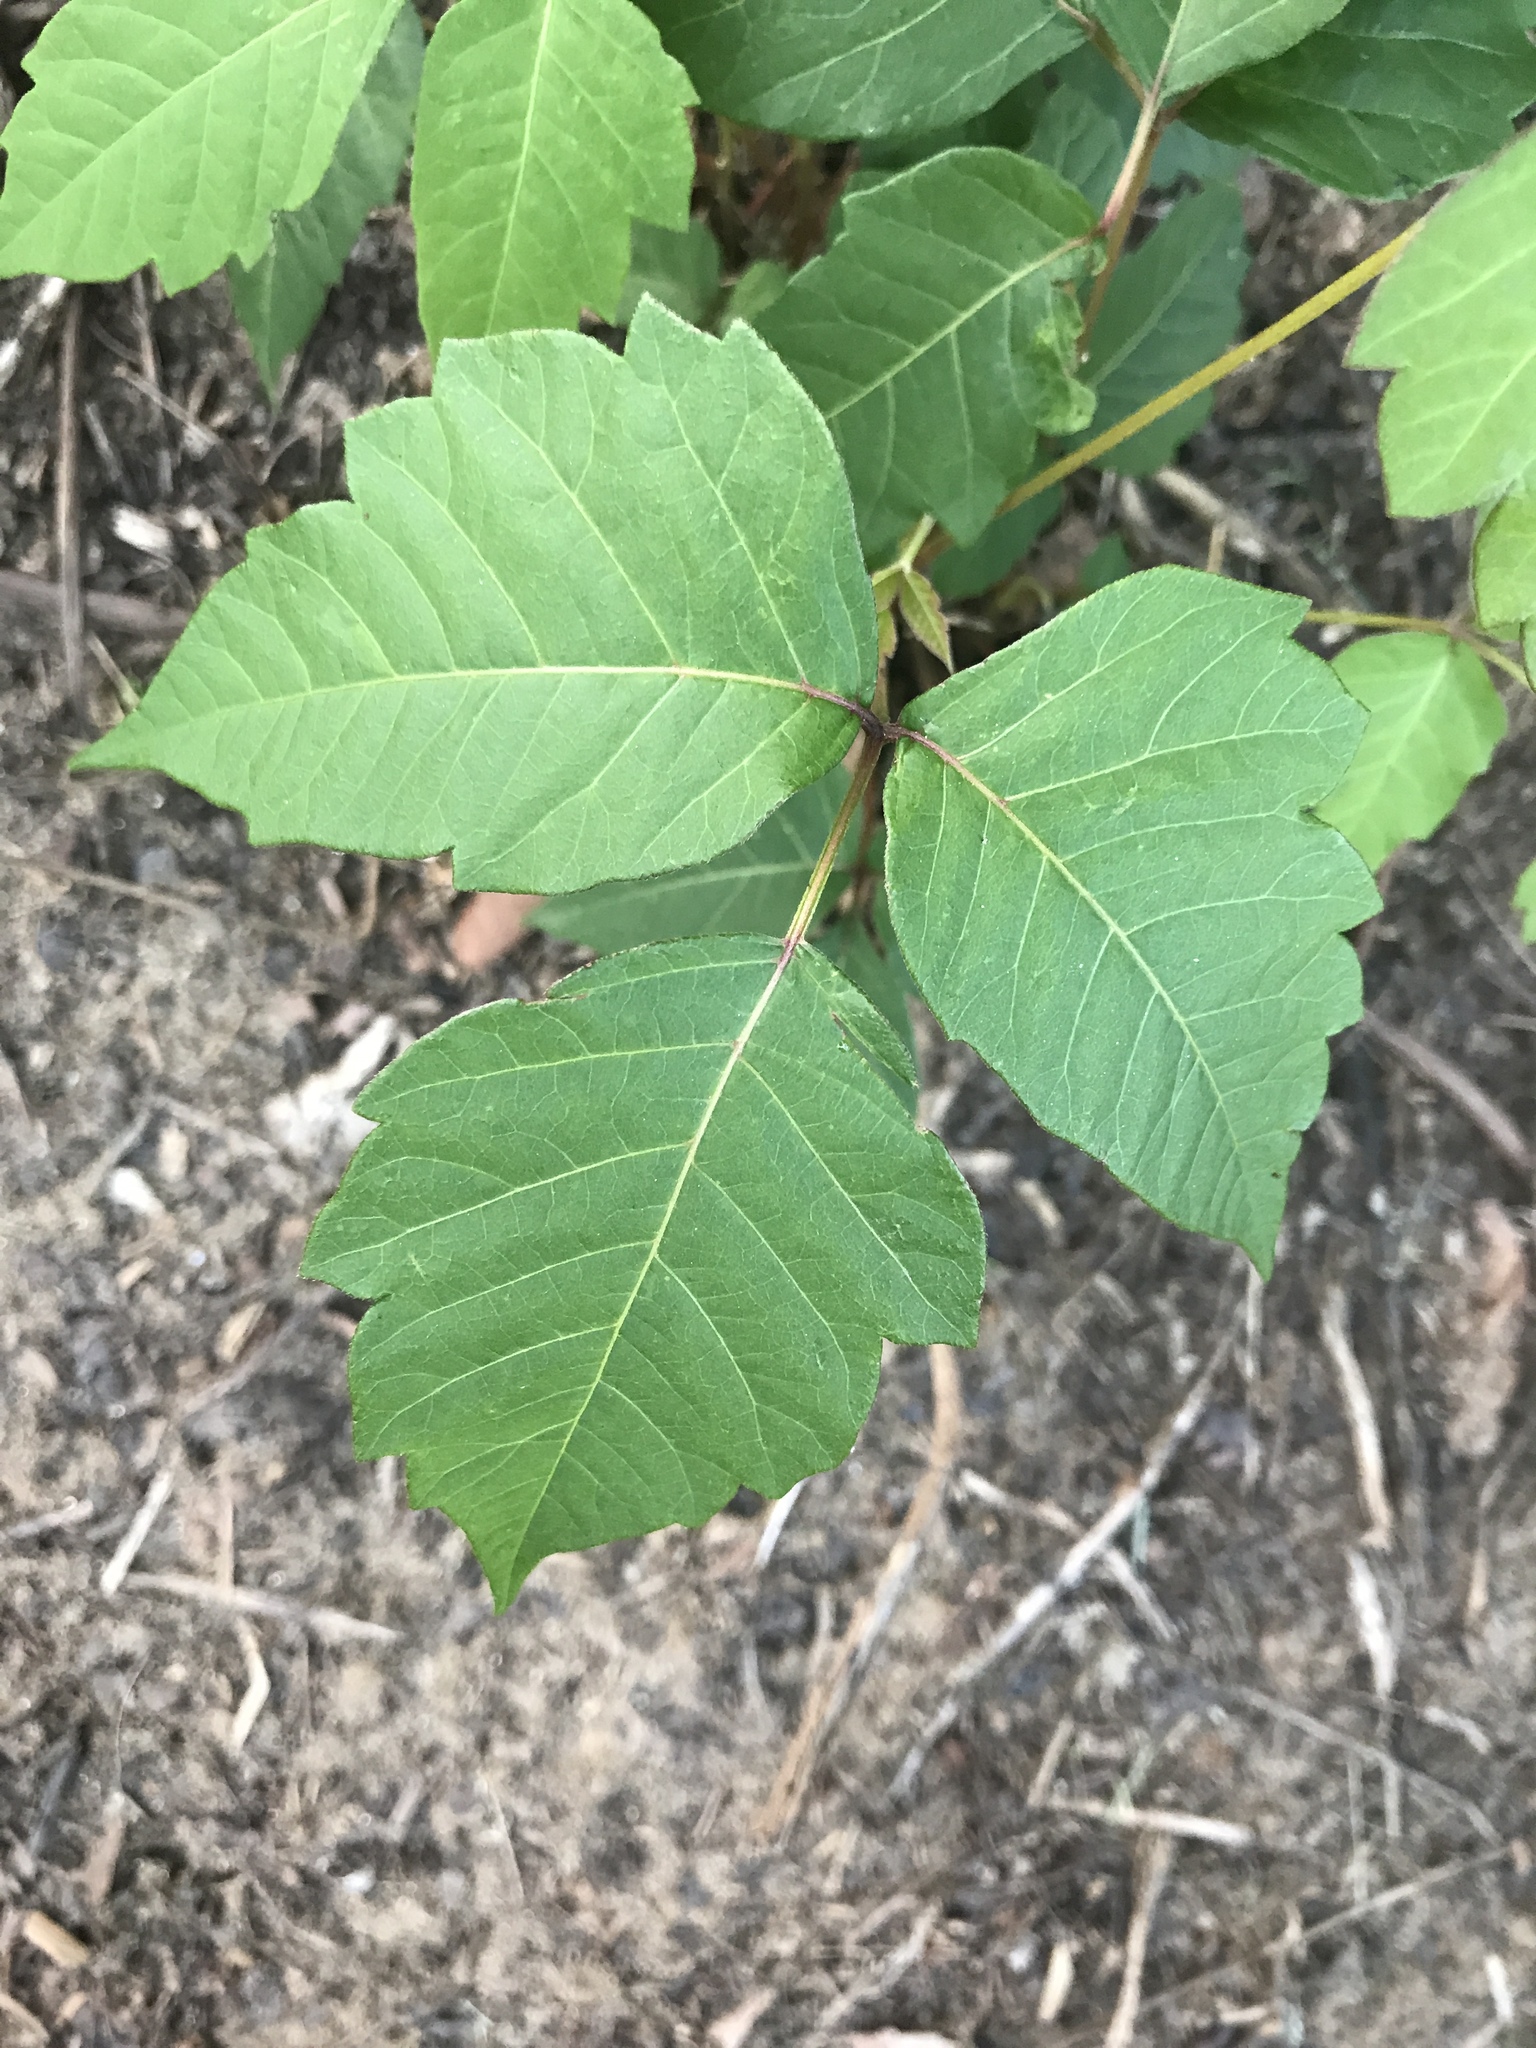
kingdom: Plantae
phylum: Tracheophyta
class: Magnoliopsida
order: Sapindales
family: Anacardiaceae
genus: Toxicodendron
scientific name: Toxicodendron radicans
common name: Poison ivy
